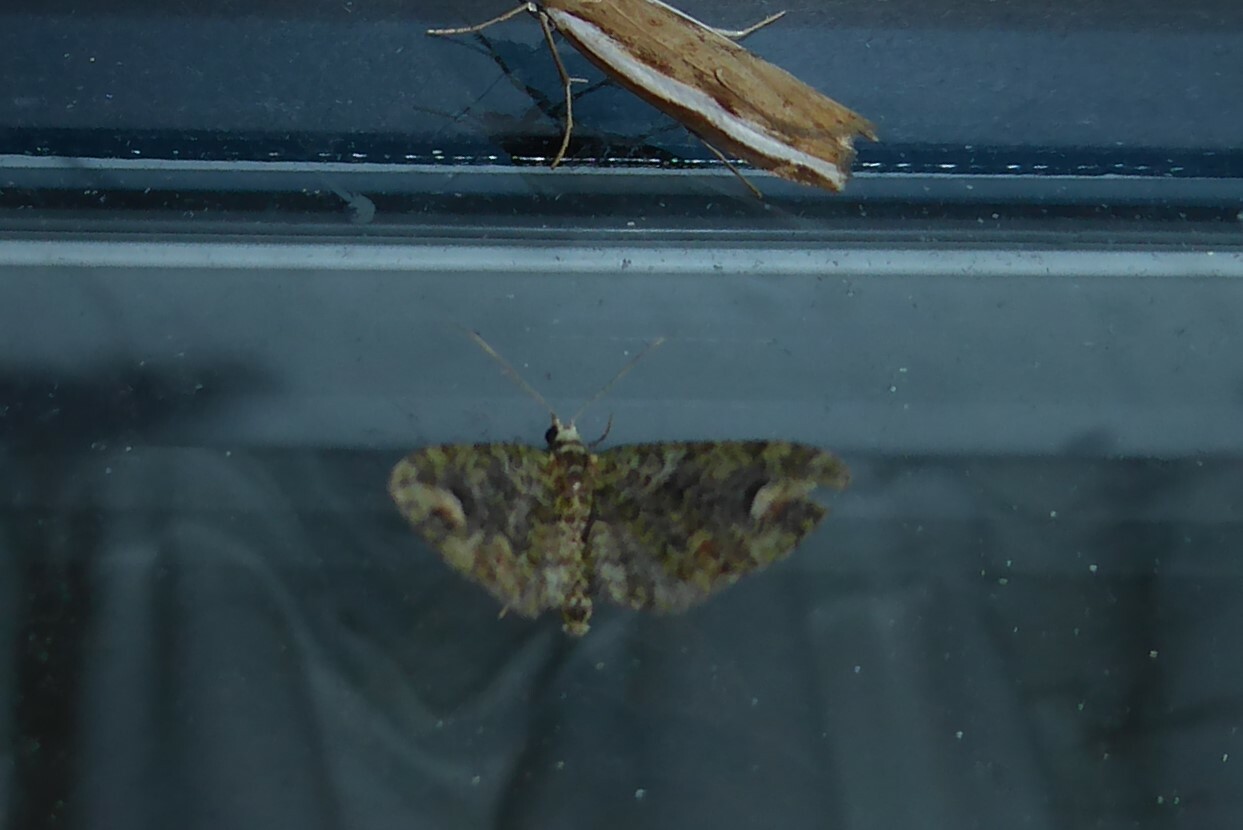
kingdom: Animalia
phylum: Arthropoda
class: Insecta
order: Lepidoptera
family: Geometridae
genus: Idaea
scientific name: Idaea mutanda
